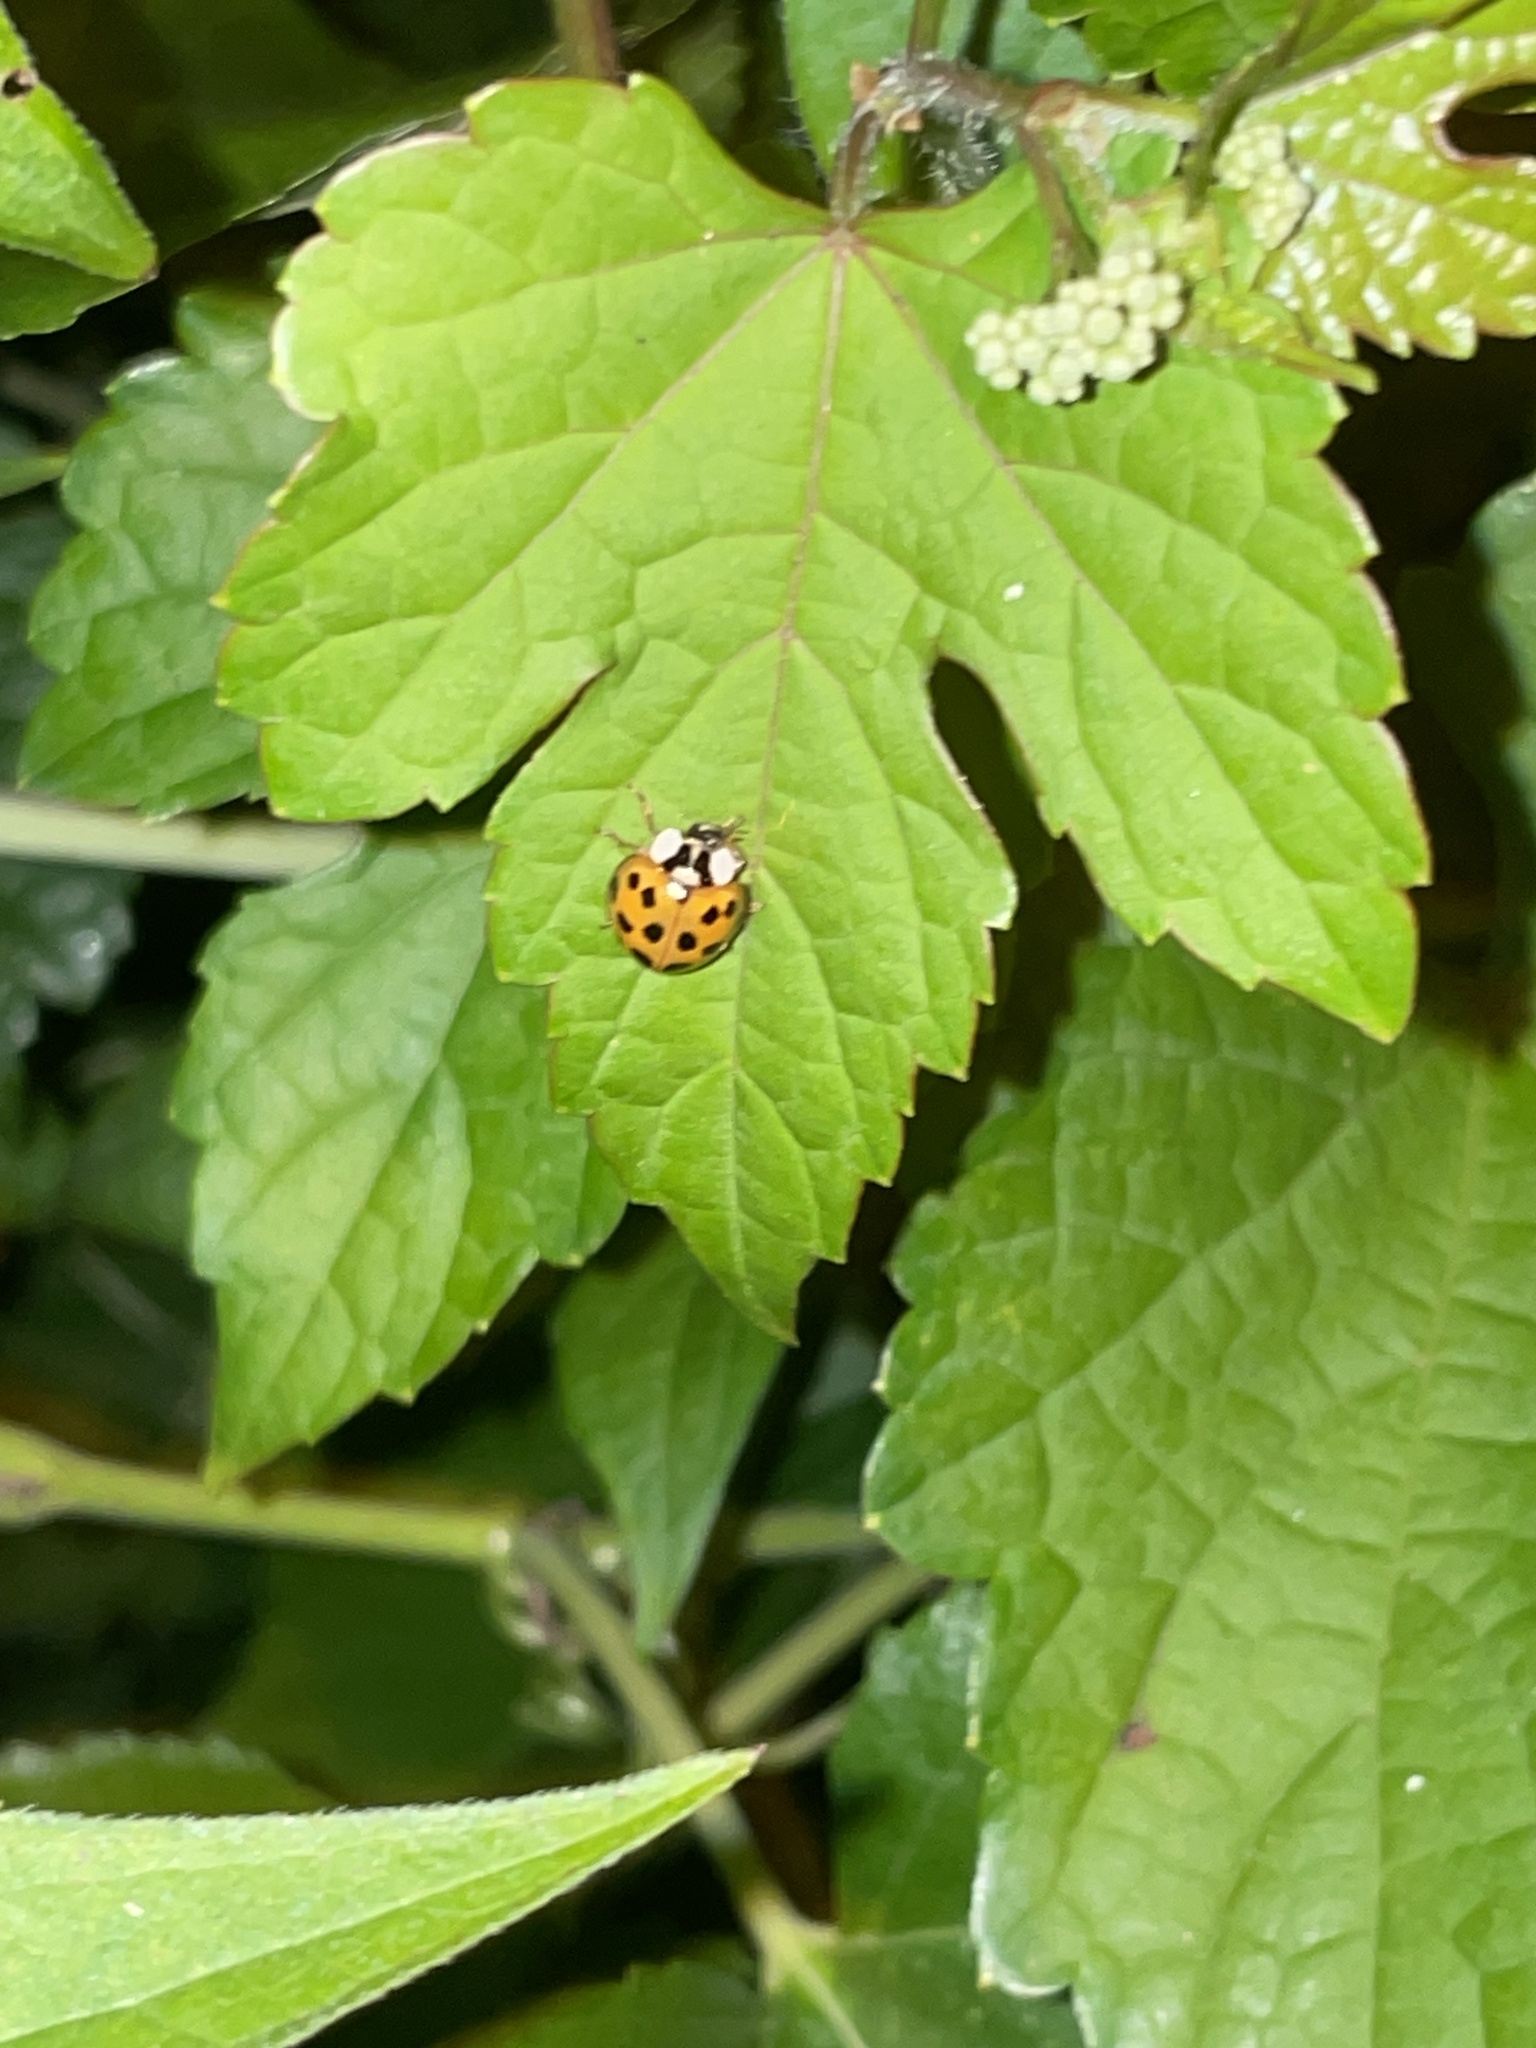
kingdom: Animalia
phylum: Arthropoda
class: Insecta
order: Coleoptera
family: Coccinellidae
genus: Harmonia
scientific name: Harmonia axyridis
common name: Harlequin ladybird
